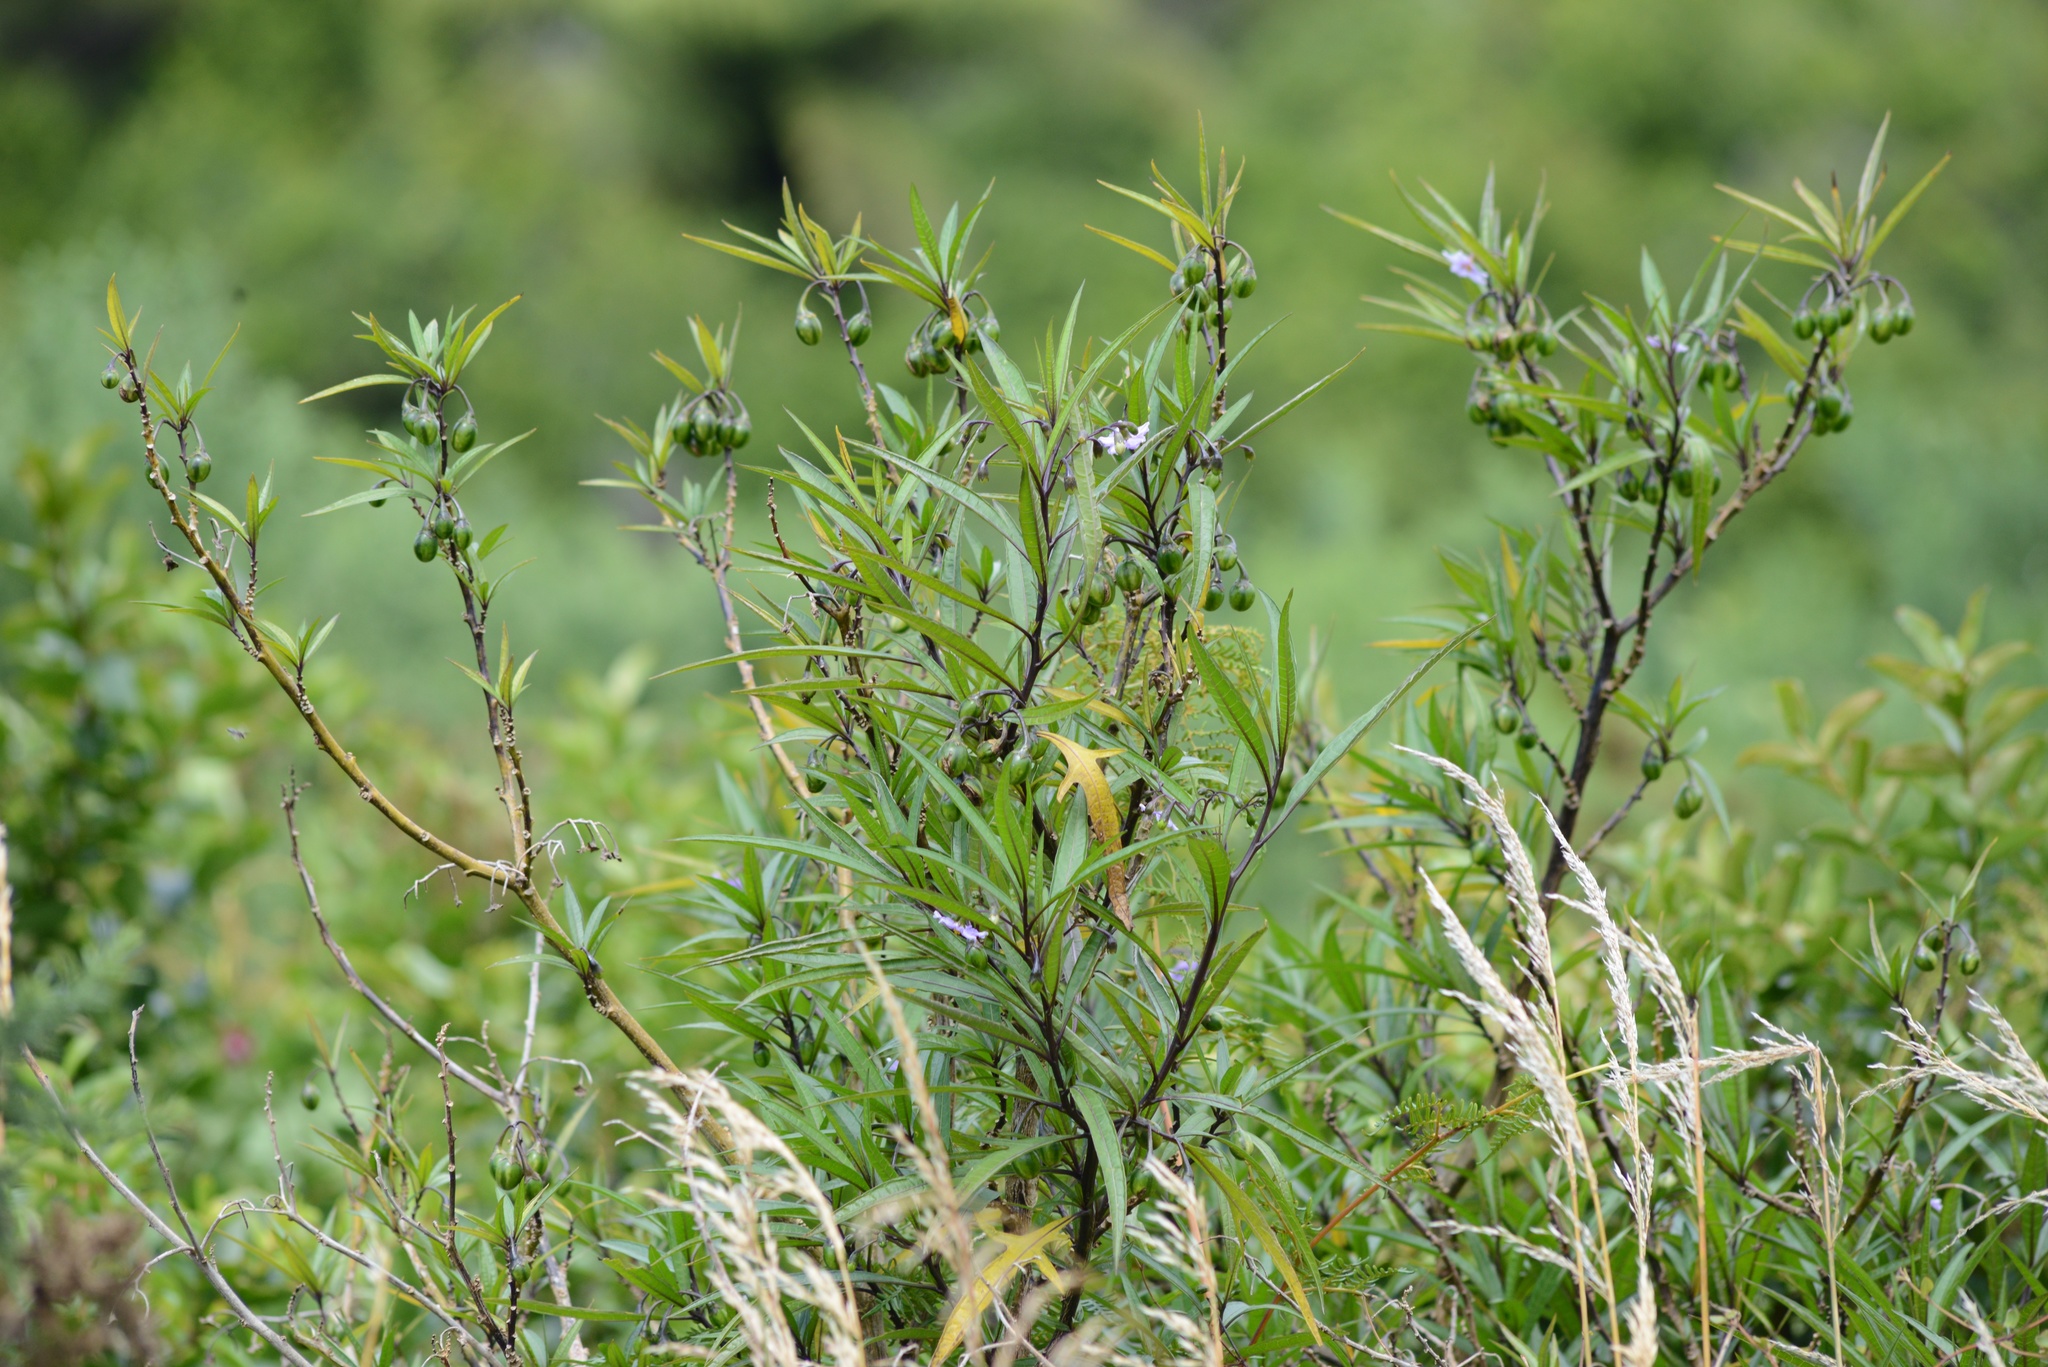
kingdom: Plantae
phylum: Tracheophyta
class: Magnoliopsida
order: Solanales
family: Solanaceae
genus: Solanum
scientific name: Solanum aviculare
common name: New zealand nightshade
